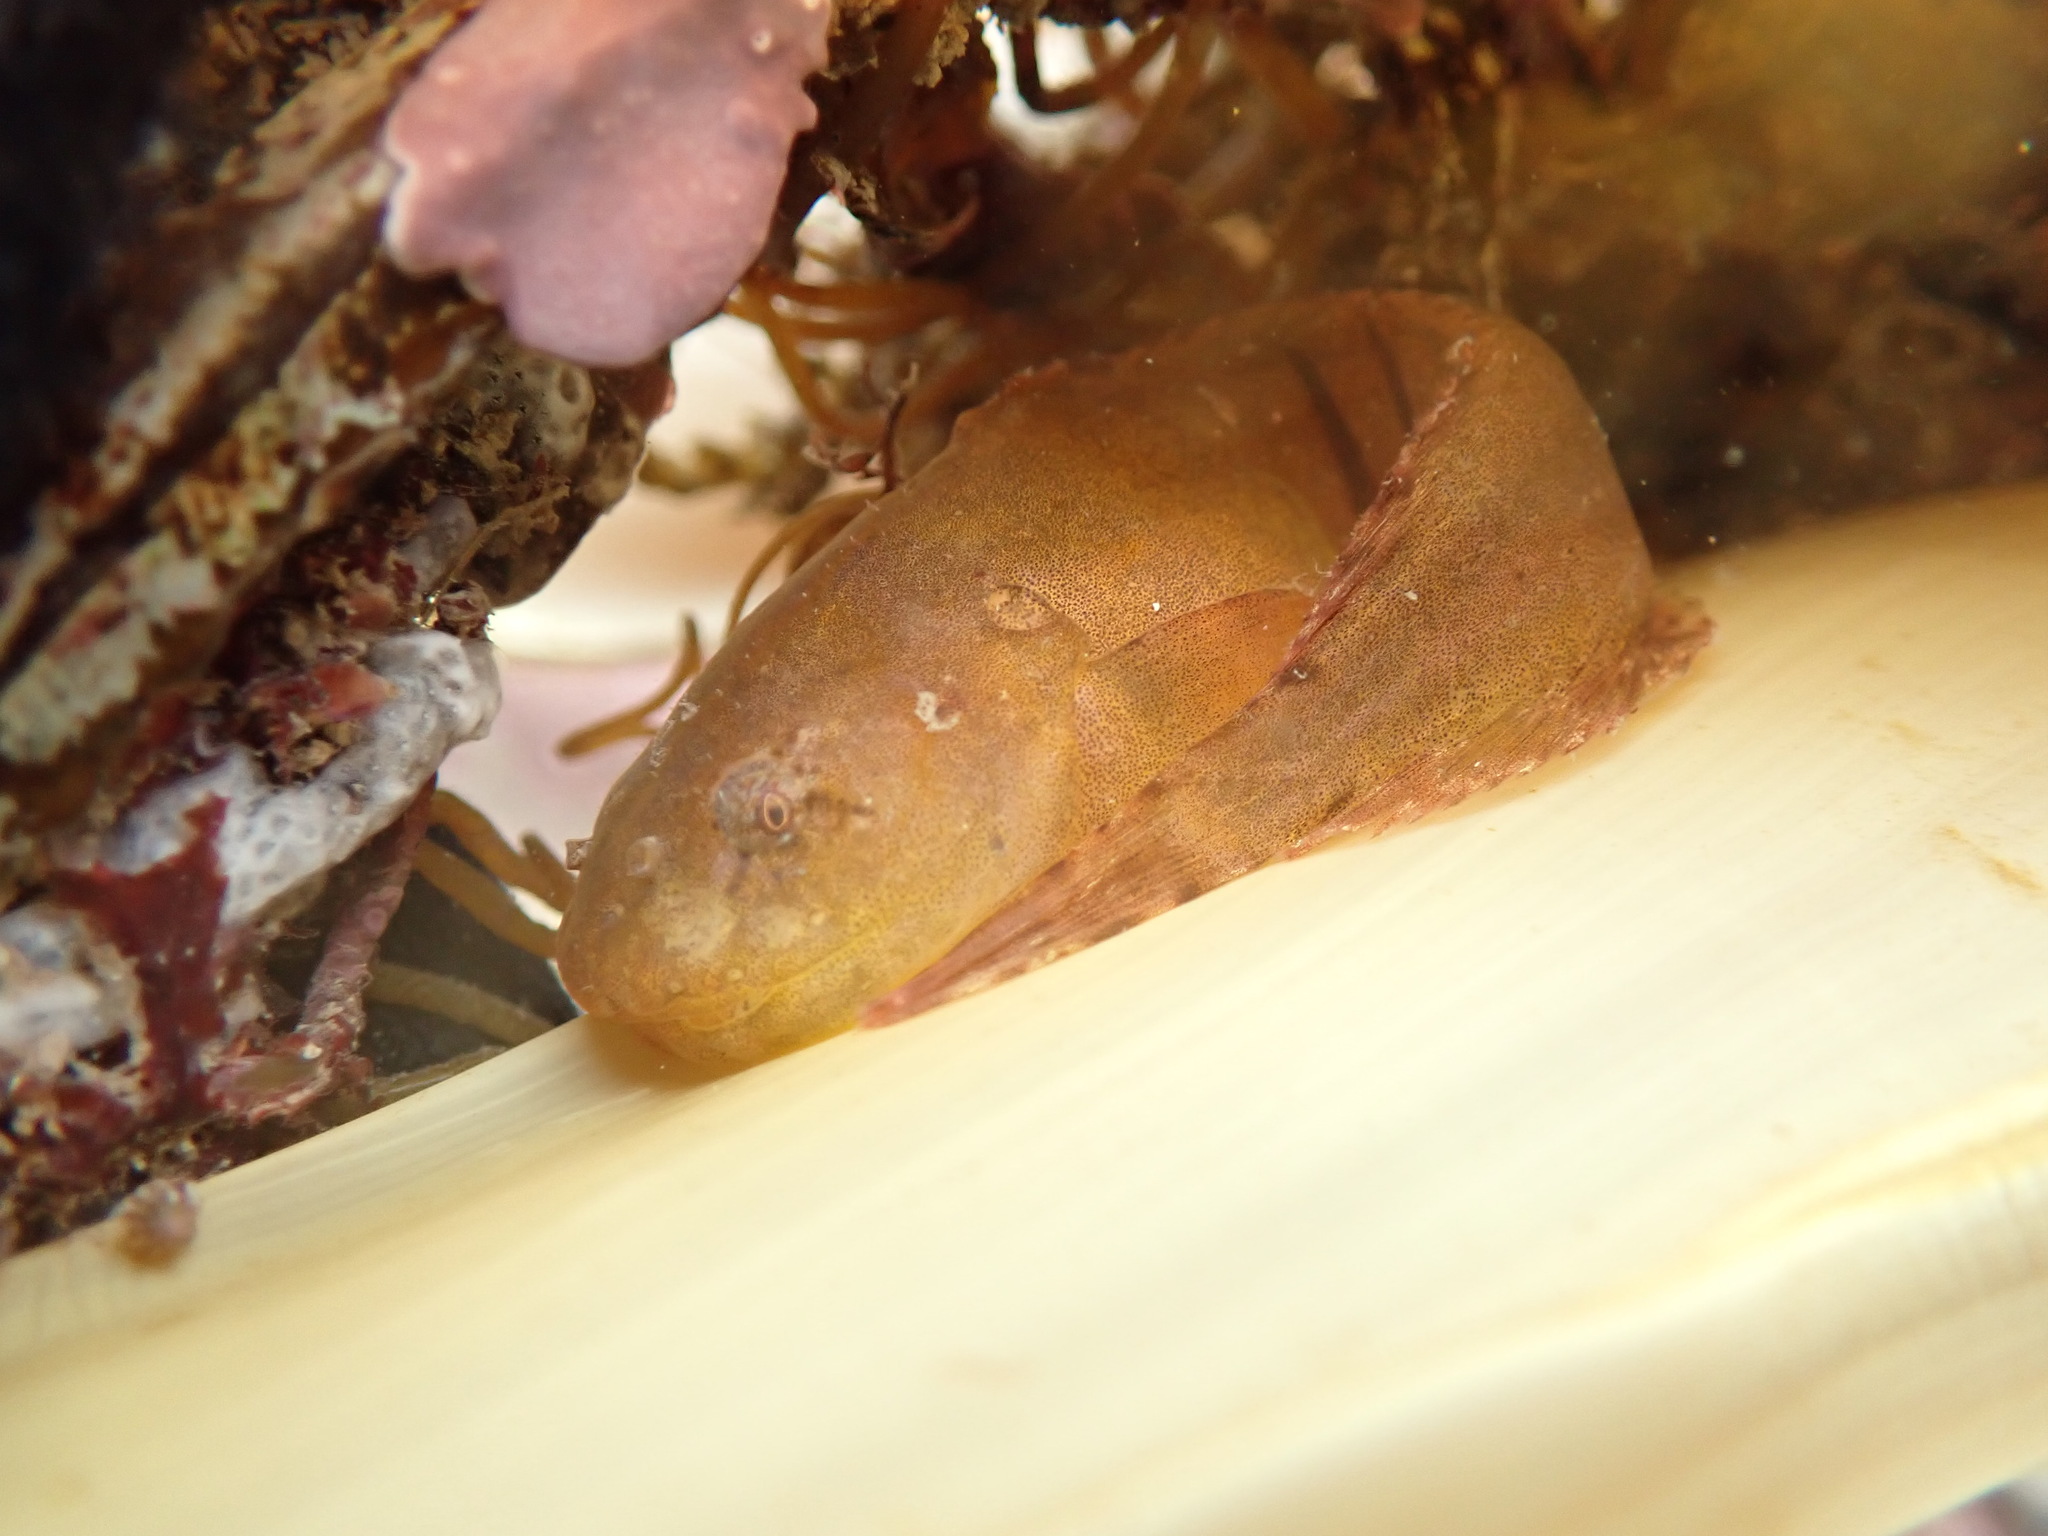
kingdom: Animalia
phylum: Chordata
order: Scorpaeniformes
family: Liparidae
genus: Liparis
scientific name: Liparis montagui
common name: Montagu's sea-snail
